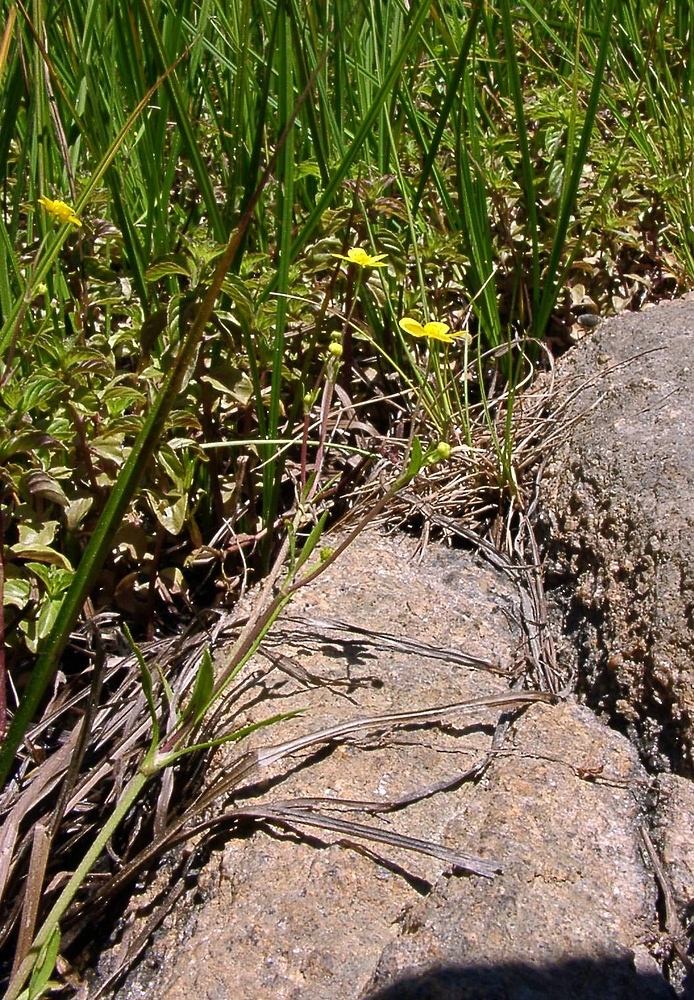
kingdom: Plantae
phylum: Tracheophyta
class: Magnoliopsida
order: Ranunculales
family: Ranunculaceae
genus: Ranunculus
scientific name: Ranunculus flammula
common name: Lesser spearwort
